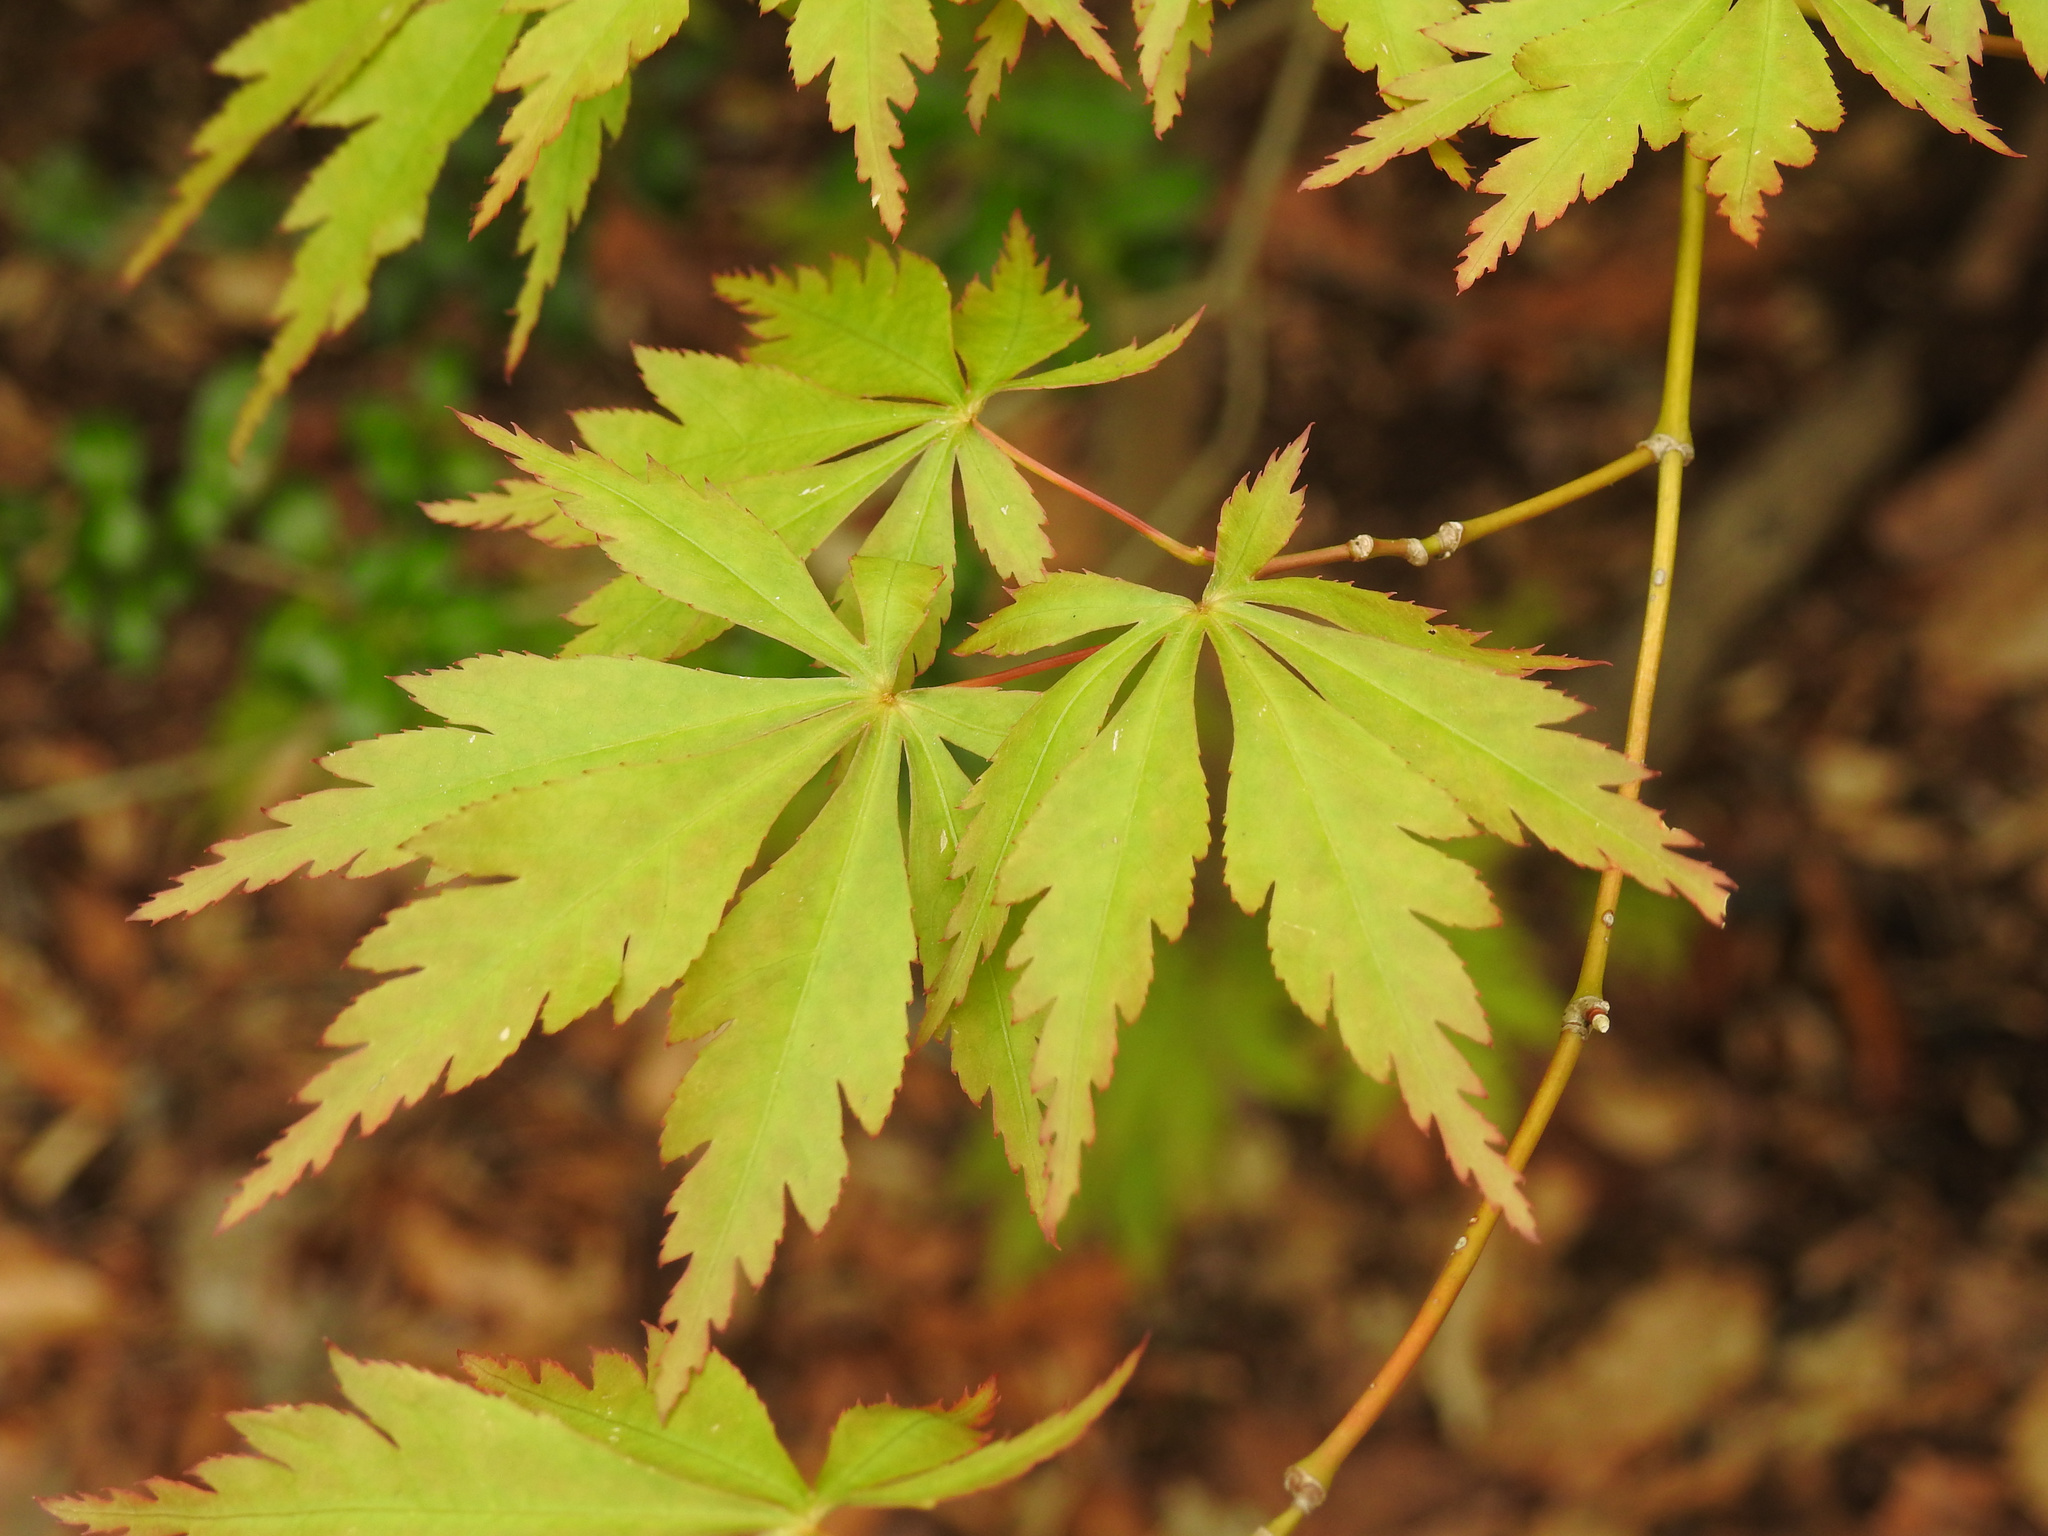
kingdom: Plantae
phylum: Tracheophyta
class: Magnoliopsida
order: Sapindales
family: Sapindaceae
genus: Acer
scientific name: Acer palmatum
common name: Japanese maple
